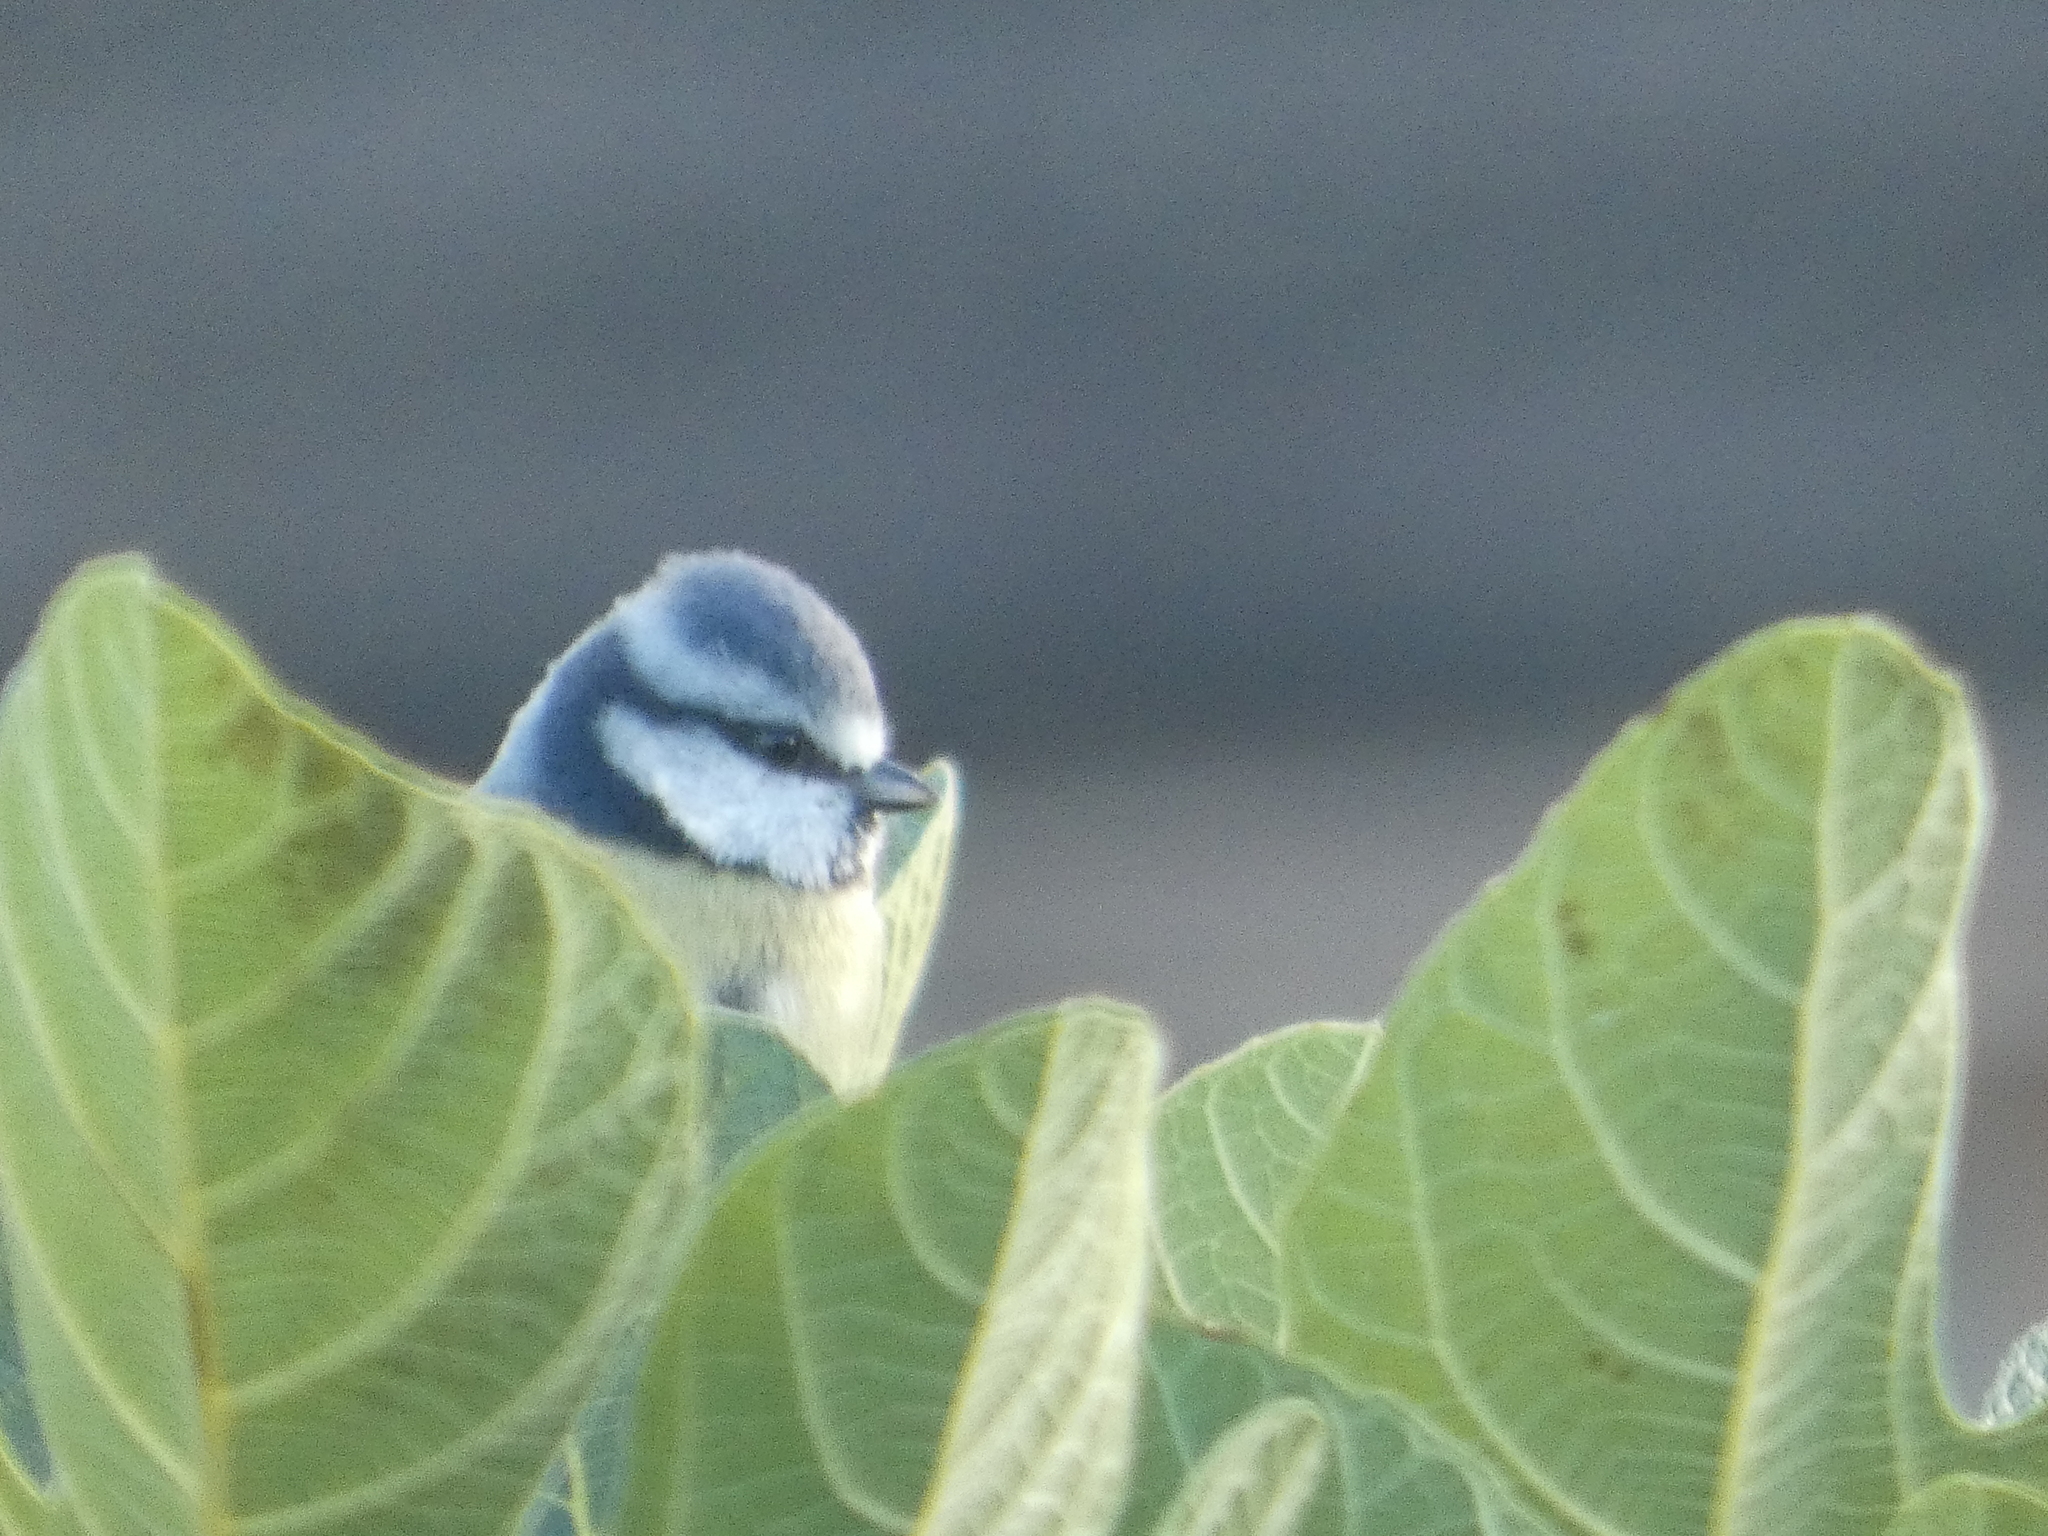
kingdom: Animalia
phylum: Chordata
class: Aves
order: Passeriformes
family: Paridae
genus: Cyanistes
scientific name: Cyanistes caeruleus
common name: Eurasian blue tit
